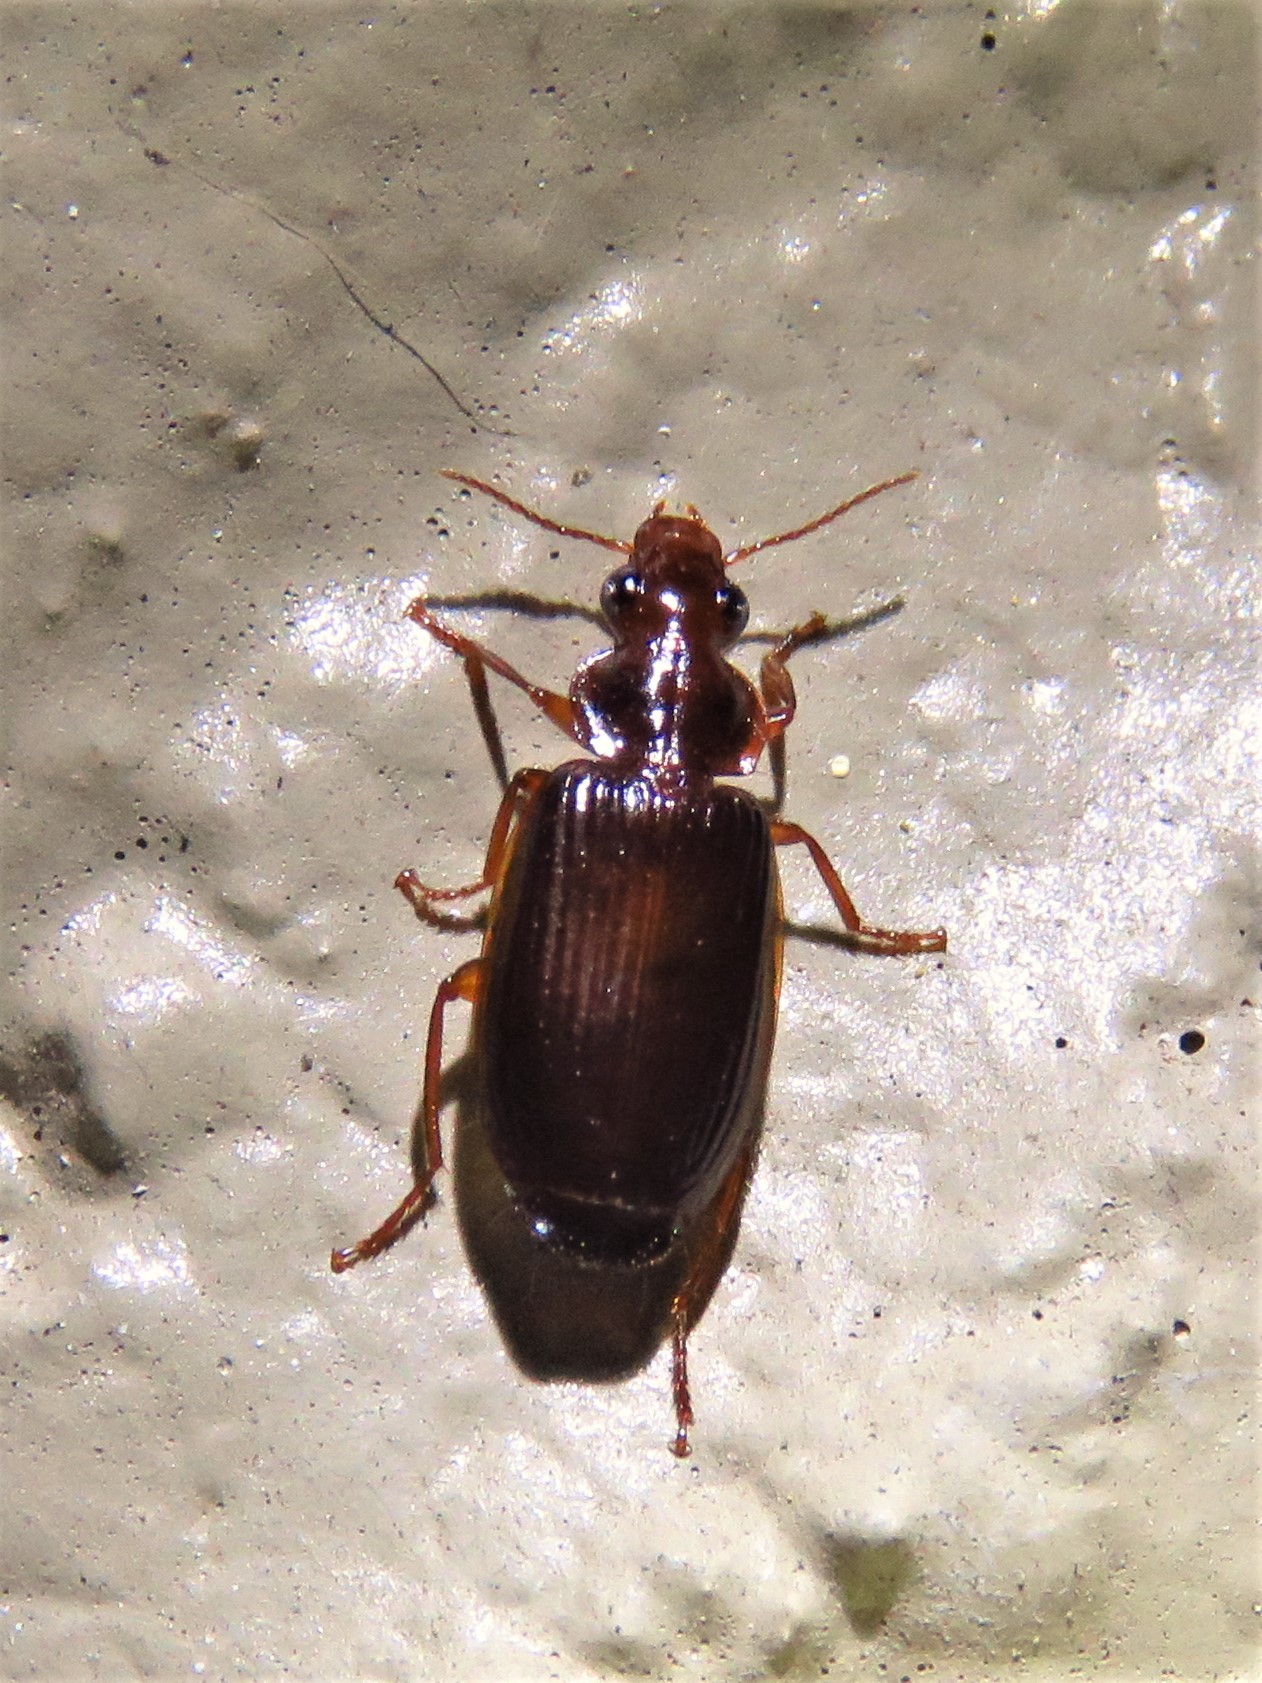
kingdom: Animalia
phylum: Arthropoda
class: Insecta
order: Coleoptera
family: Carabidae
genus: Plochionus
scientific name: Plochionus timidus
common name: Timid harp ground beetle
